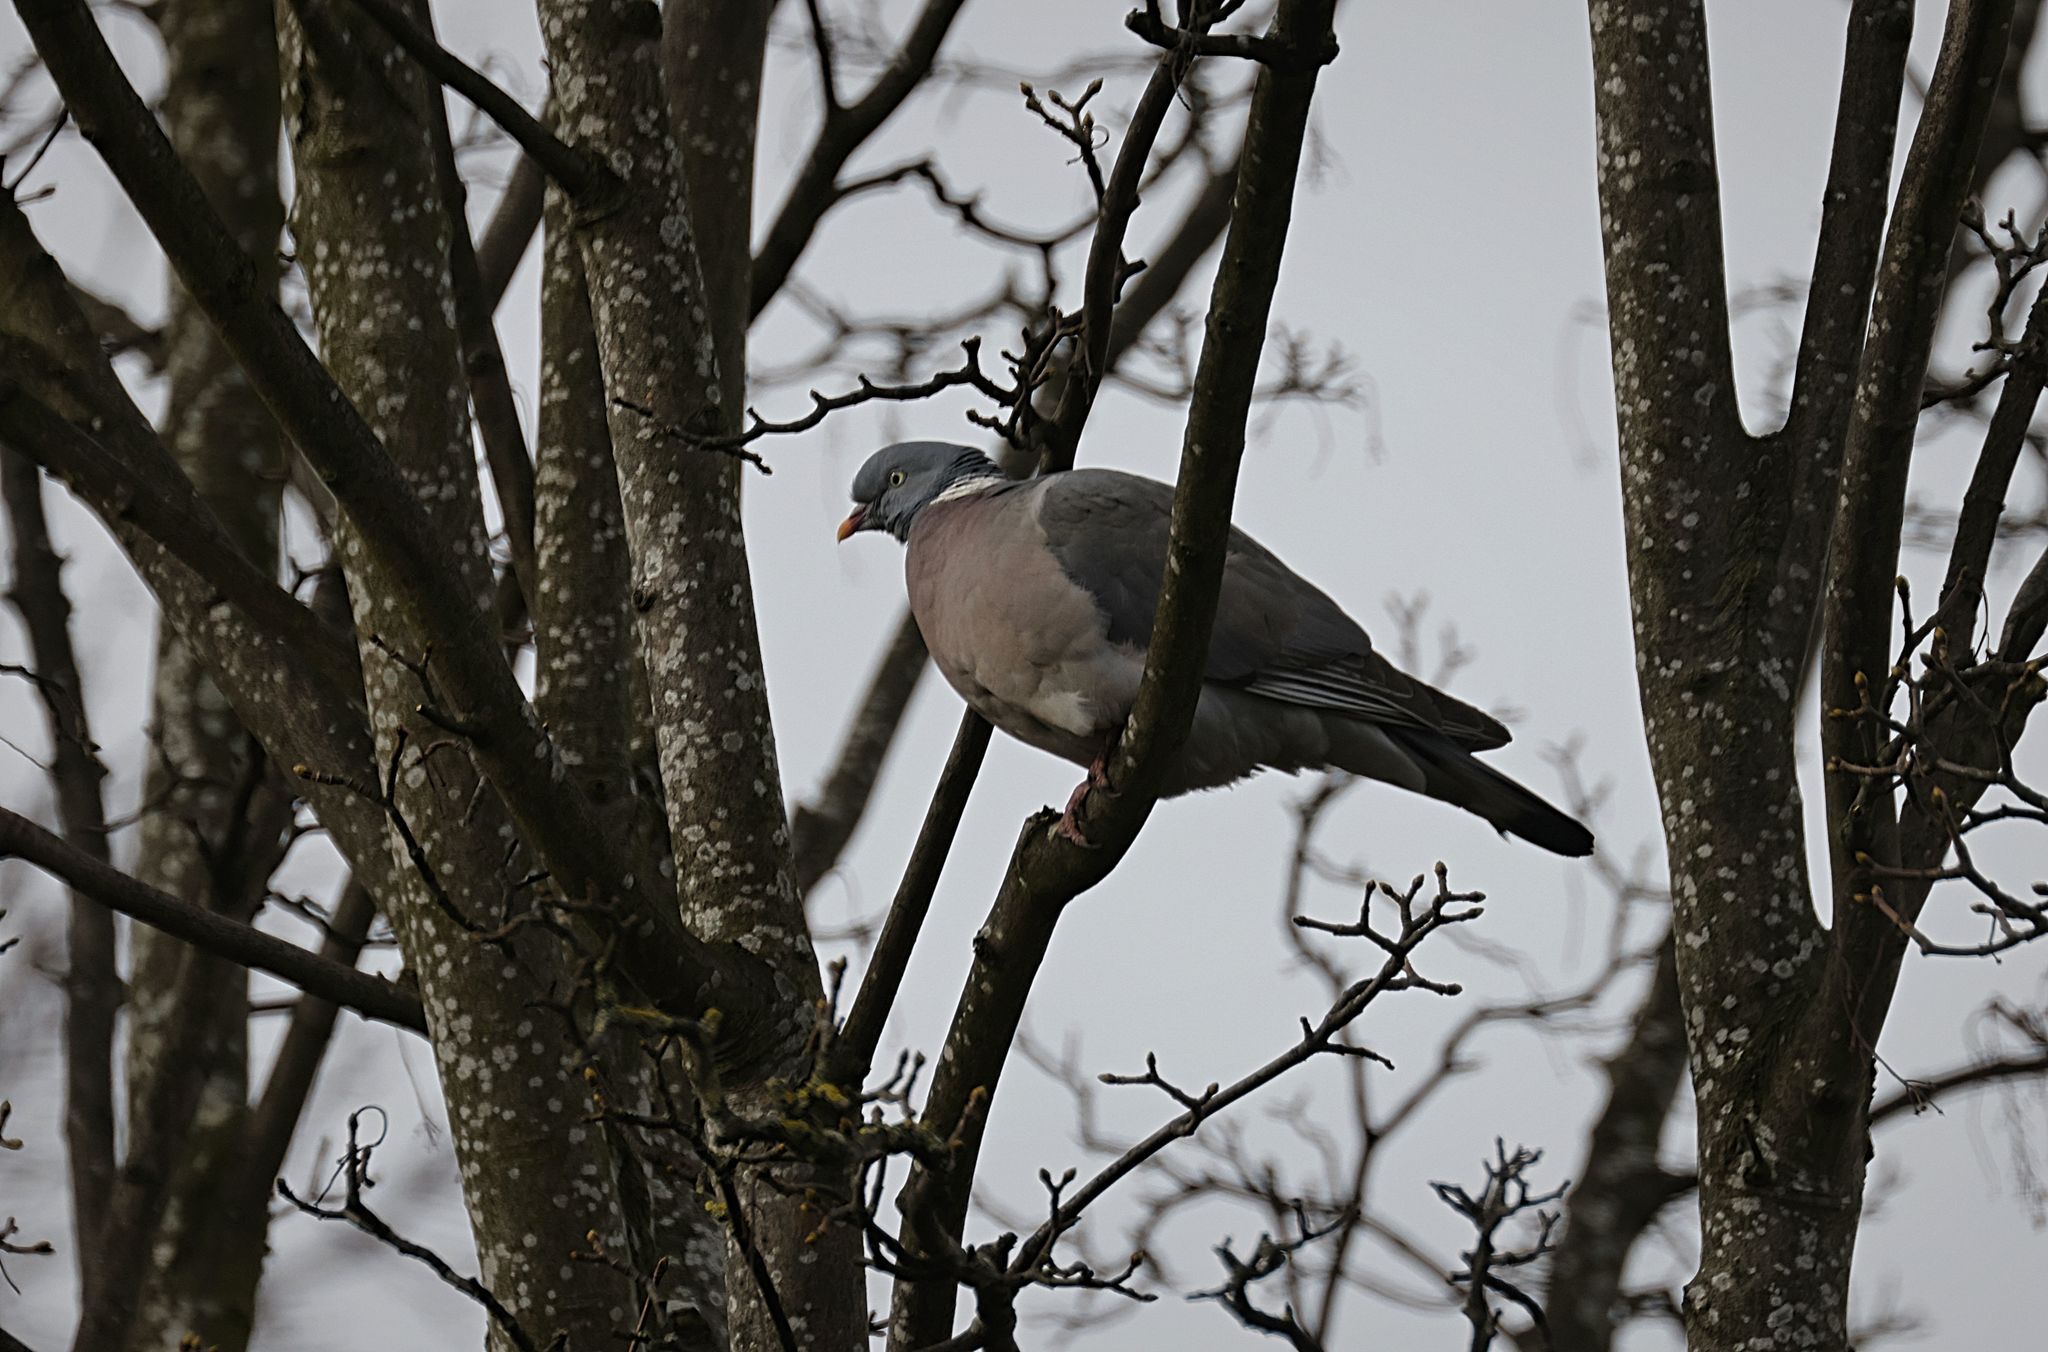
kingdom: Animalia
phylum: Chordata
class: Aves
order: Columbiformes
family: Columbidae
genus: Columba
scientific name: Columba palumbus
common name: Common wood pigeon
